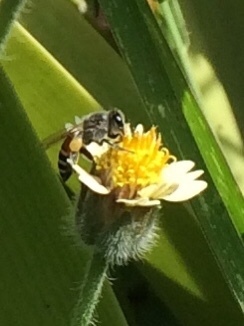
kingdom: Animalia
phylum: Arthropoda
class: Insecta
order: Hymenoptera
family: Apidae
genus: Apis
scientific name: Apis florea
